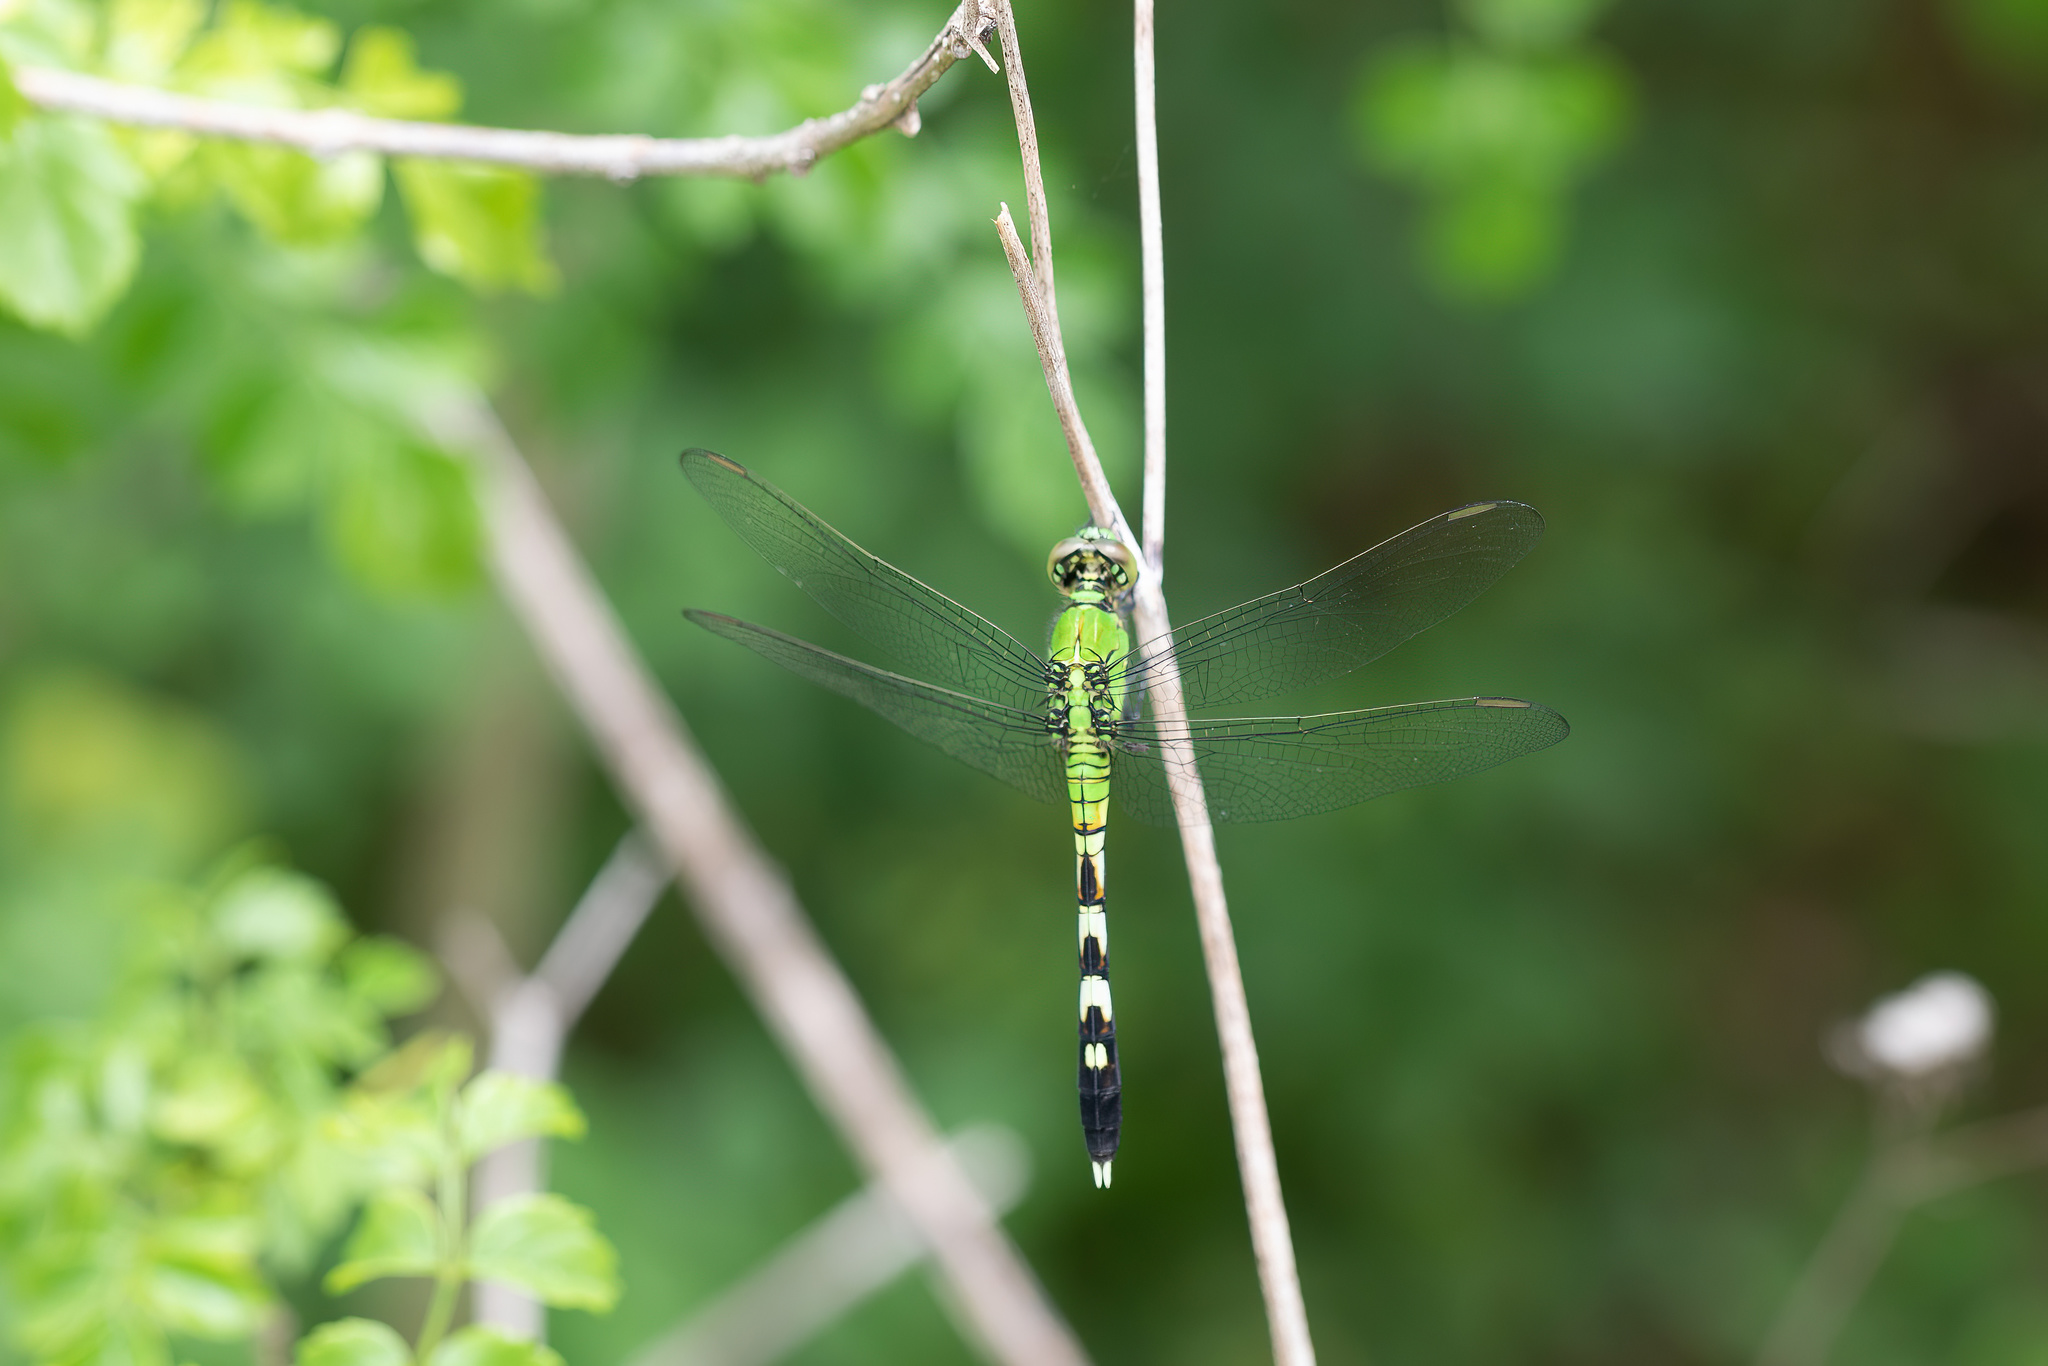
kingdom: Animalia
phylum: Arthropoda
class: Insecta
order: Odonata
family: Libellulidae
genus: Erythemis
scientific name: Erythemis simplicicollis
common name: Eastern pondhawk
